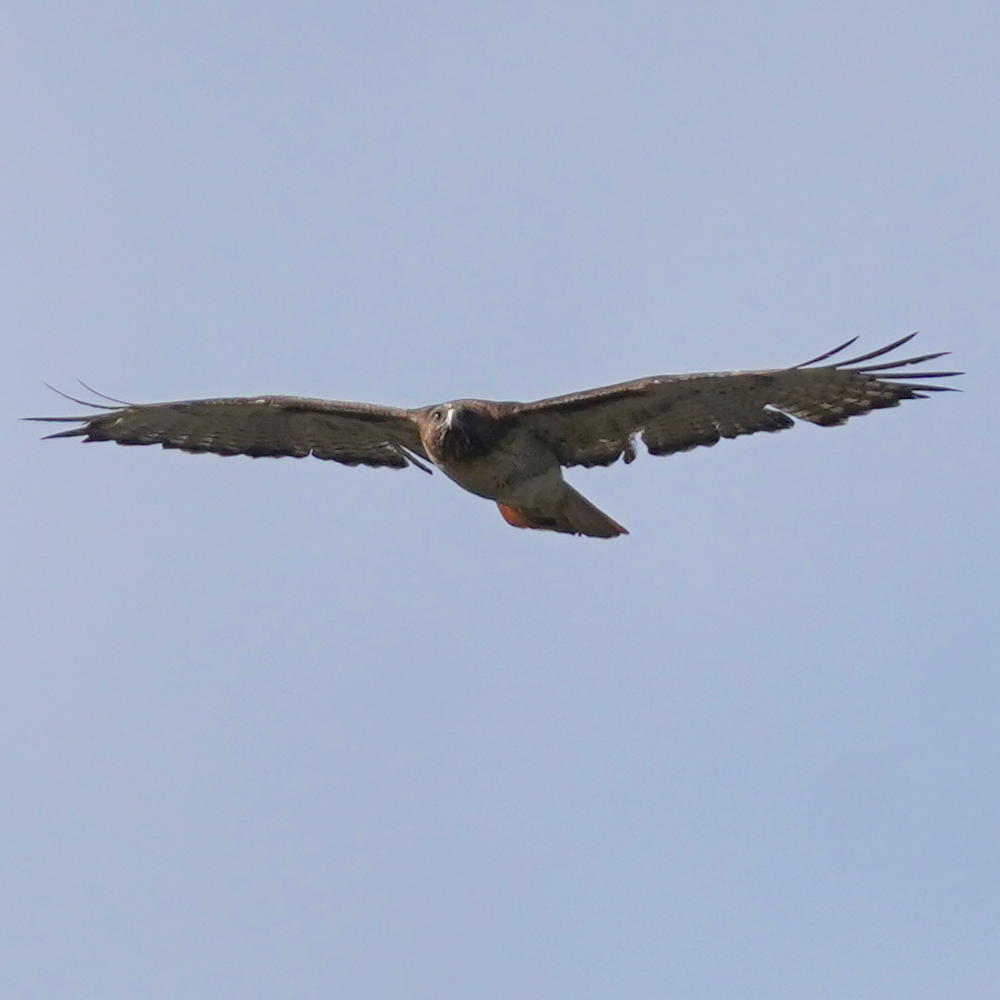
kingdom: Animalia
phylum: Chordata
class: Aves
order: Accipitriformes
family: Accipitridae
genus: Buteo
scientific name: Buteo jamaicensis
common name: Red-tailed hawk
